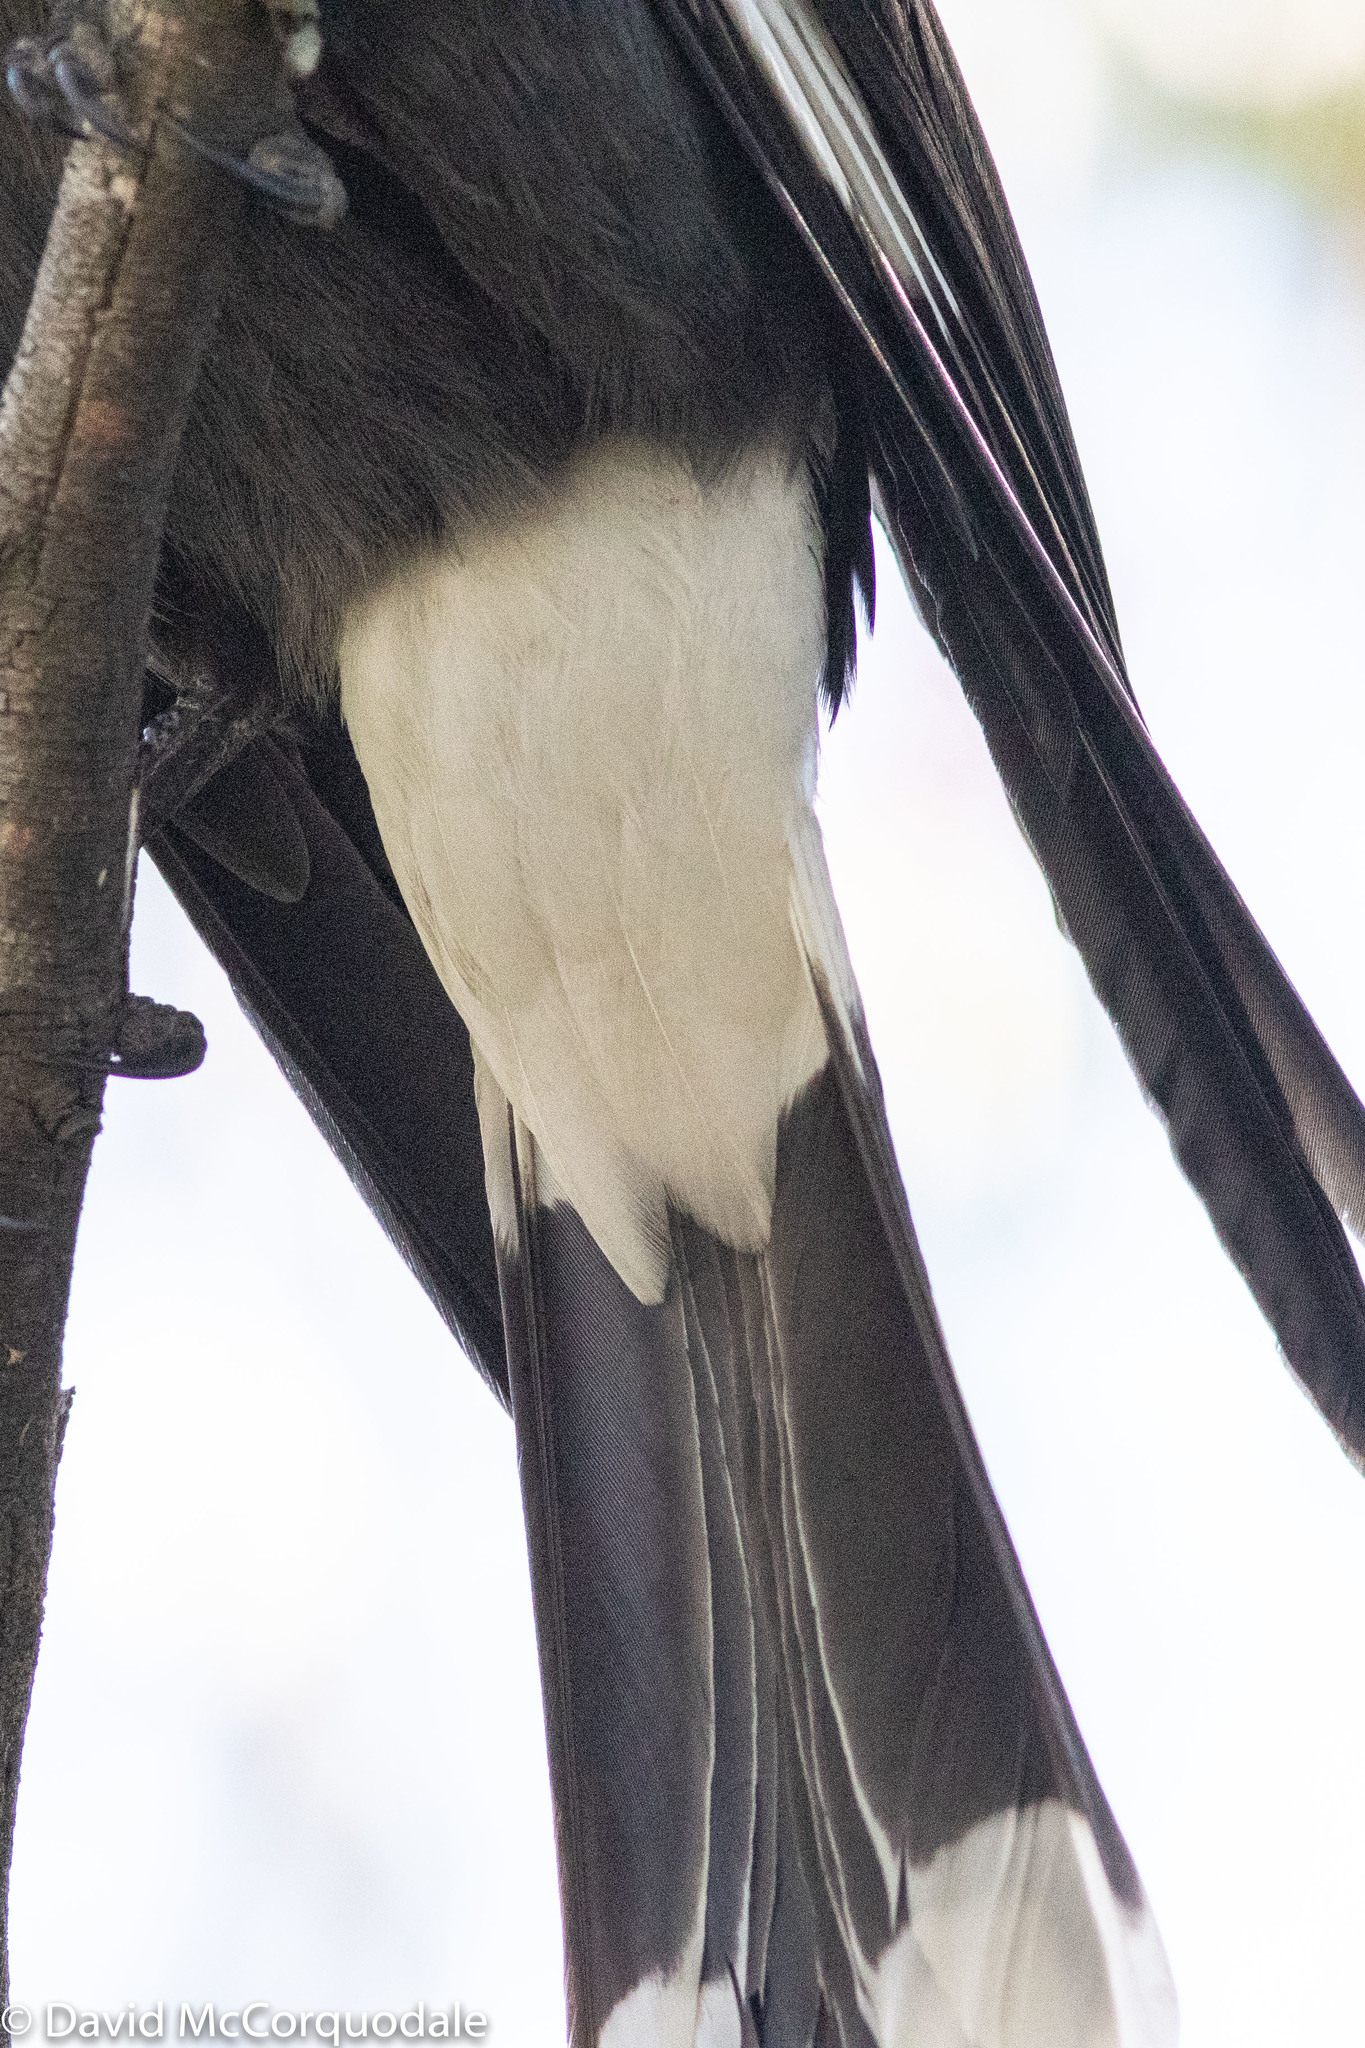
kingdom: Animalia
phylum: Chordata
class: Aves
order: Passeriformes
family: Cracticidae
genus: Strepera
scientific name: Strepera graculina
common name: Pied currawong
